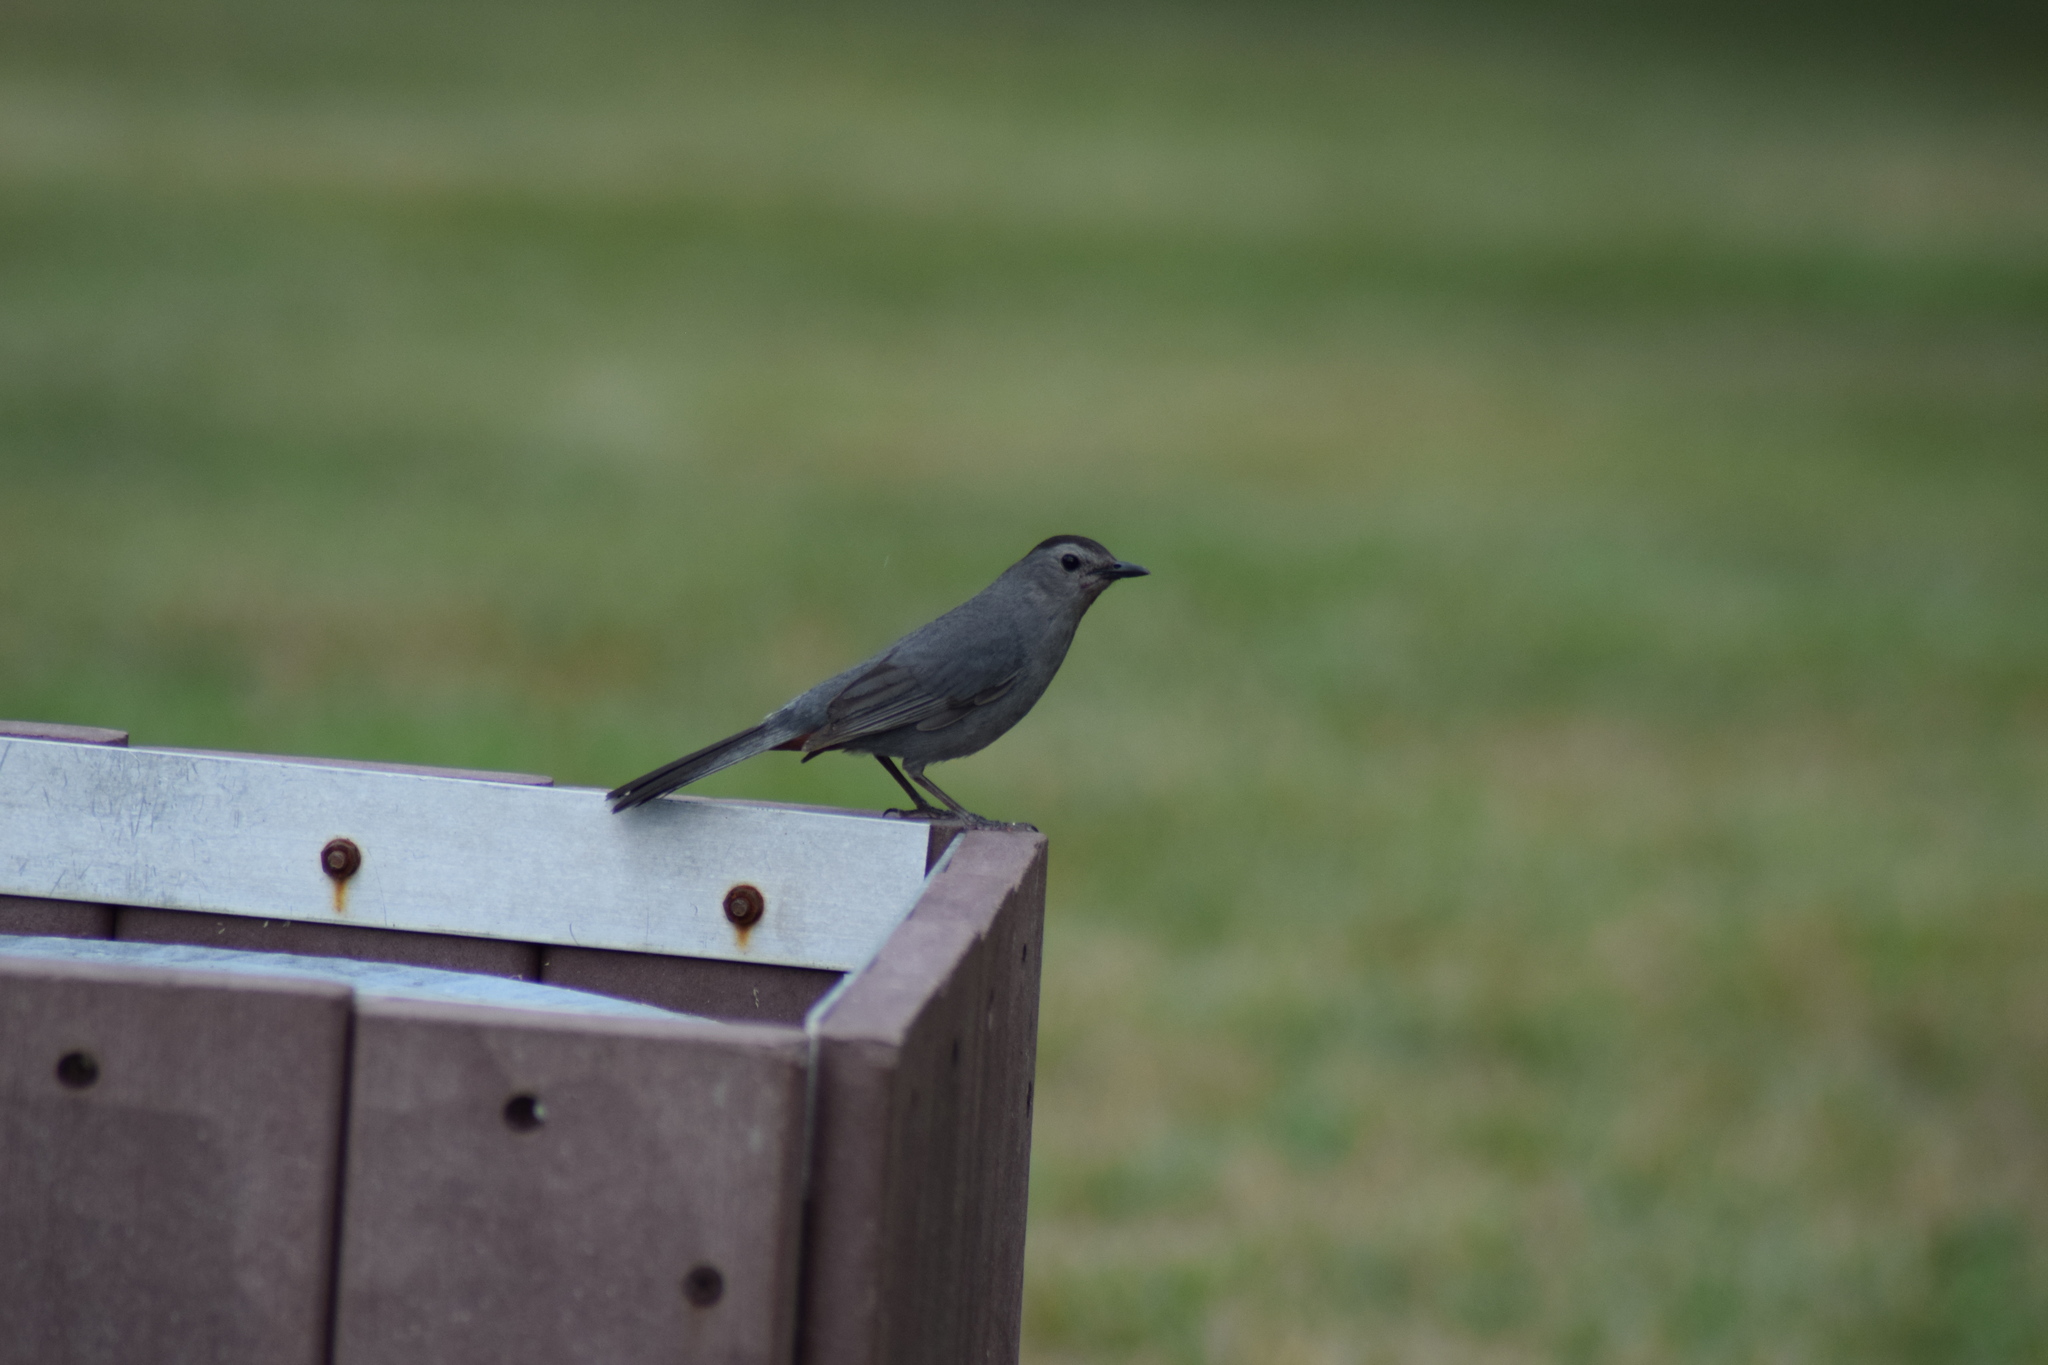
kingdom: Animalia
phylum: Chordata
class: Aves
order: Passeriformes
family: Mimidae
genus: Dumetella
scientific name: Dumetella carolinensis
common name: Gray catbird
